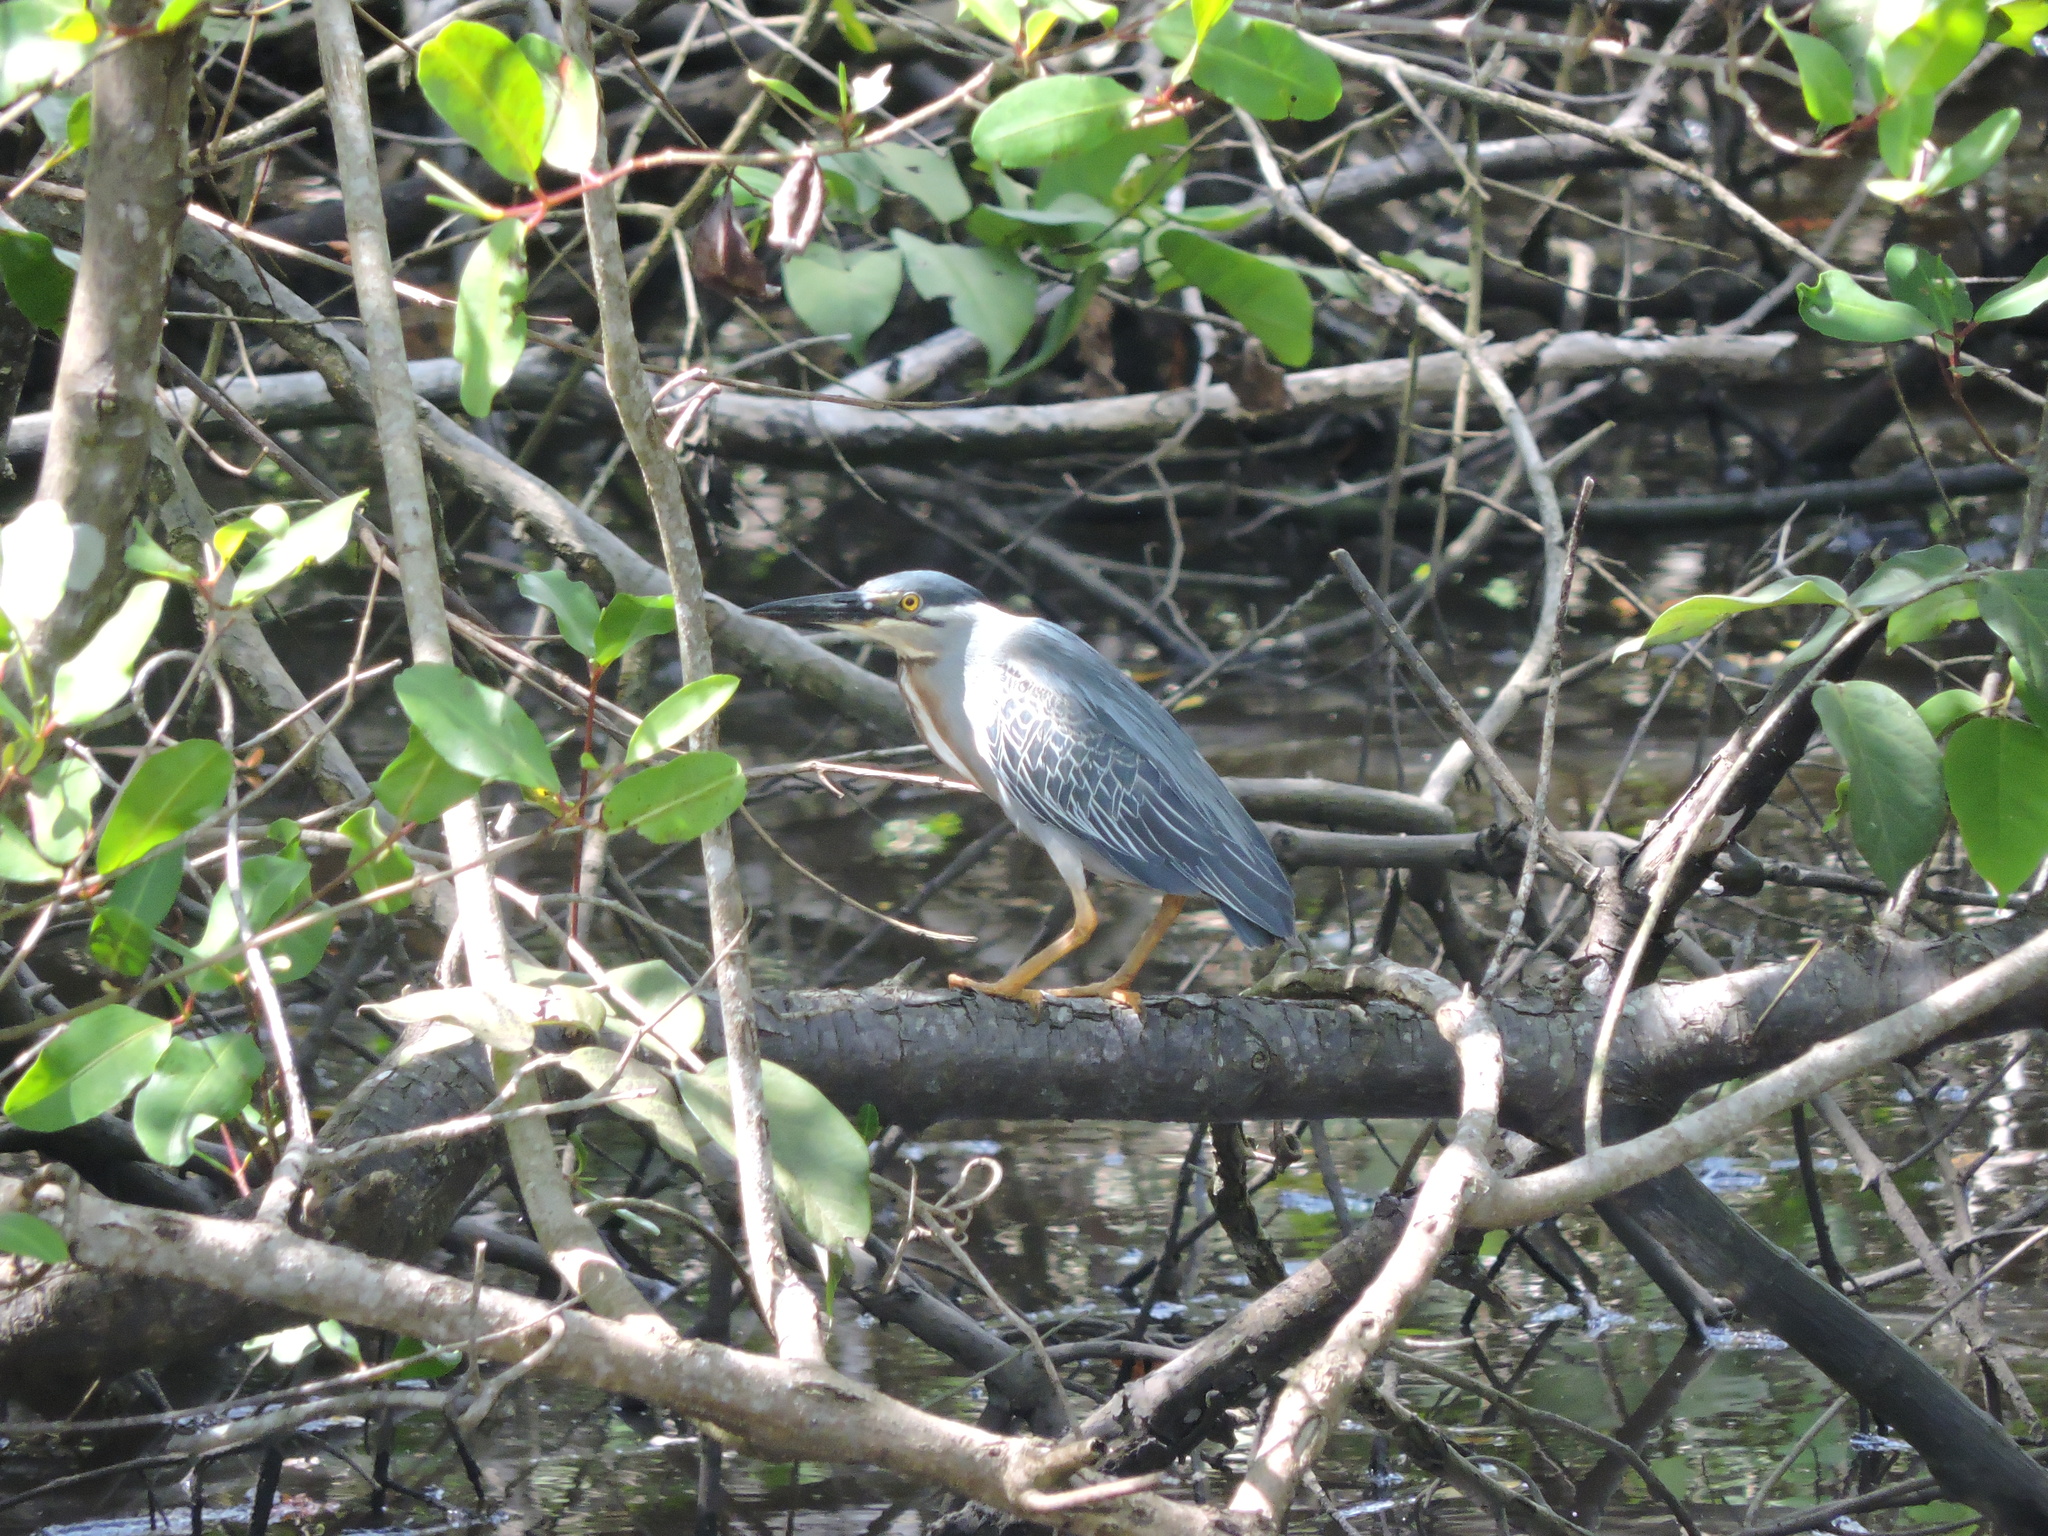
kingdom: Animalia
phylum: Chordata
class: Aves
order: Pelecaniformes
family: Ardeidae
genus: Butorides
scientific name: Butorides striata
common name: Striated heron
